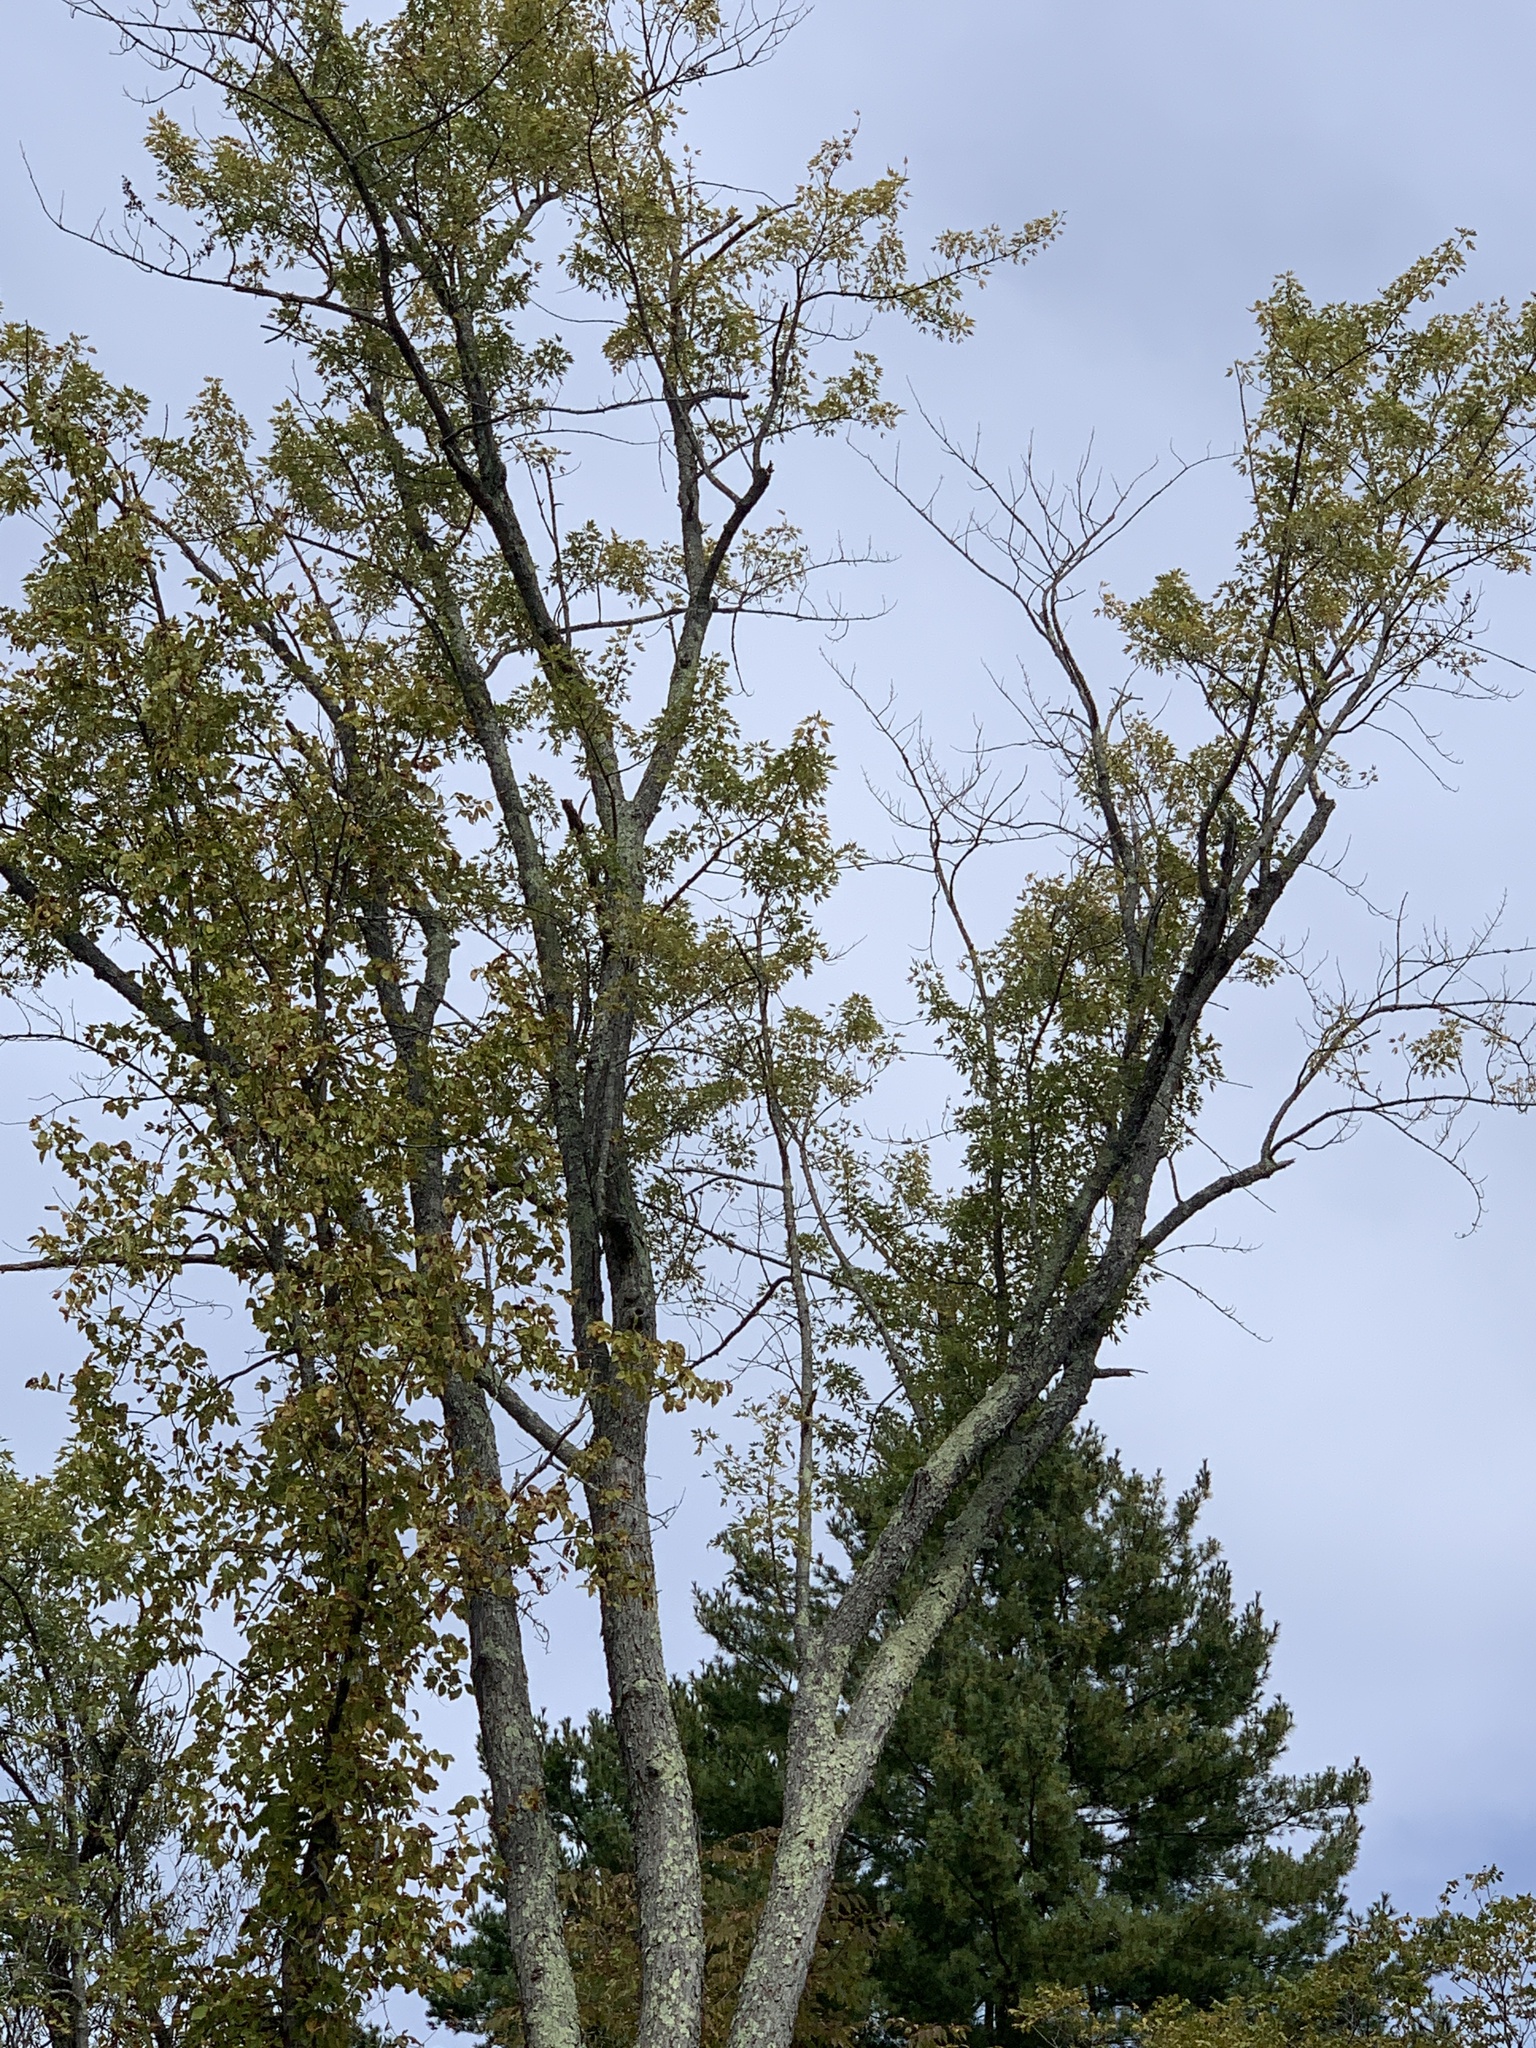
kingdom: Plantae
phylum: Tracheophyta
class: Magnoliopsida
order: Sapindales
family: Sapindaceae
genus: Acer
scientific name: Acer saccharinum
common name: Silver maple
